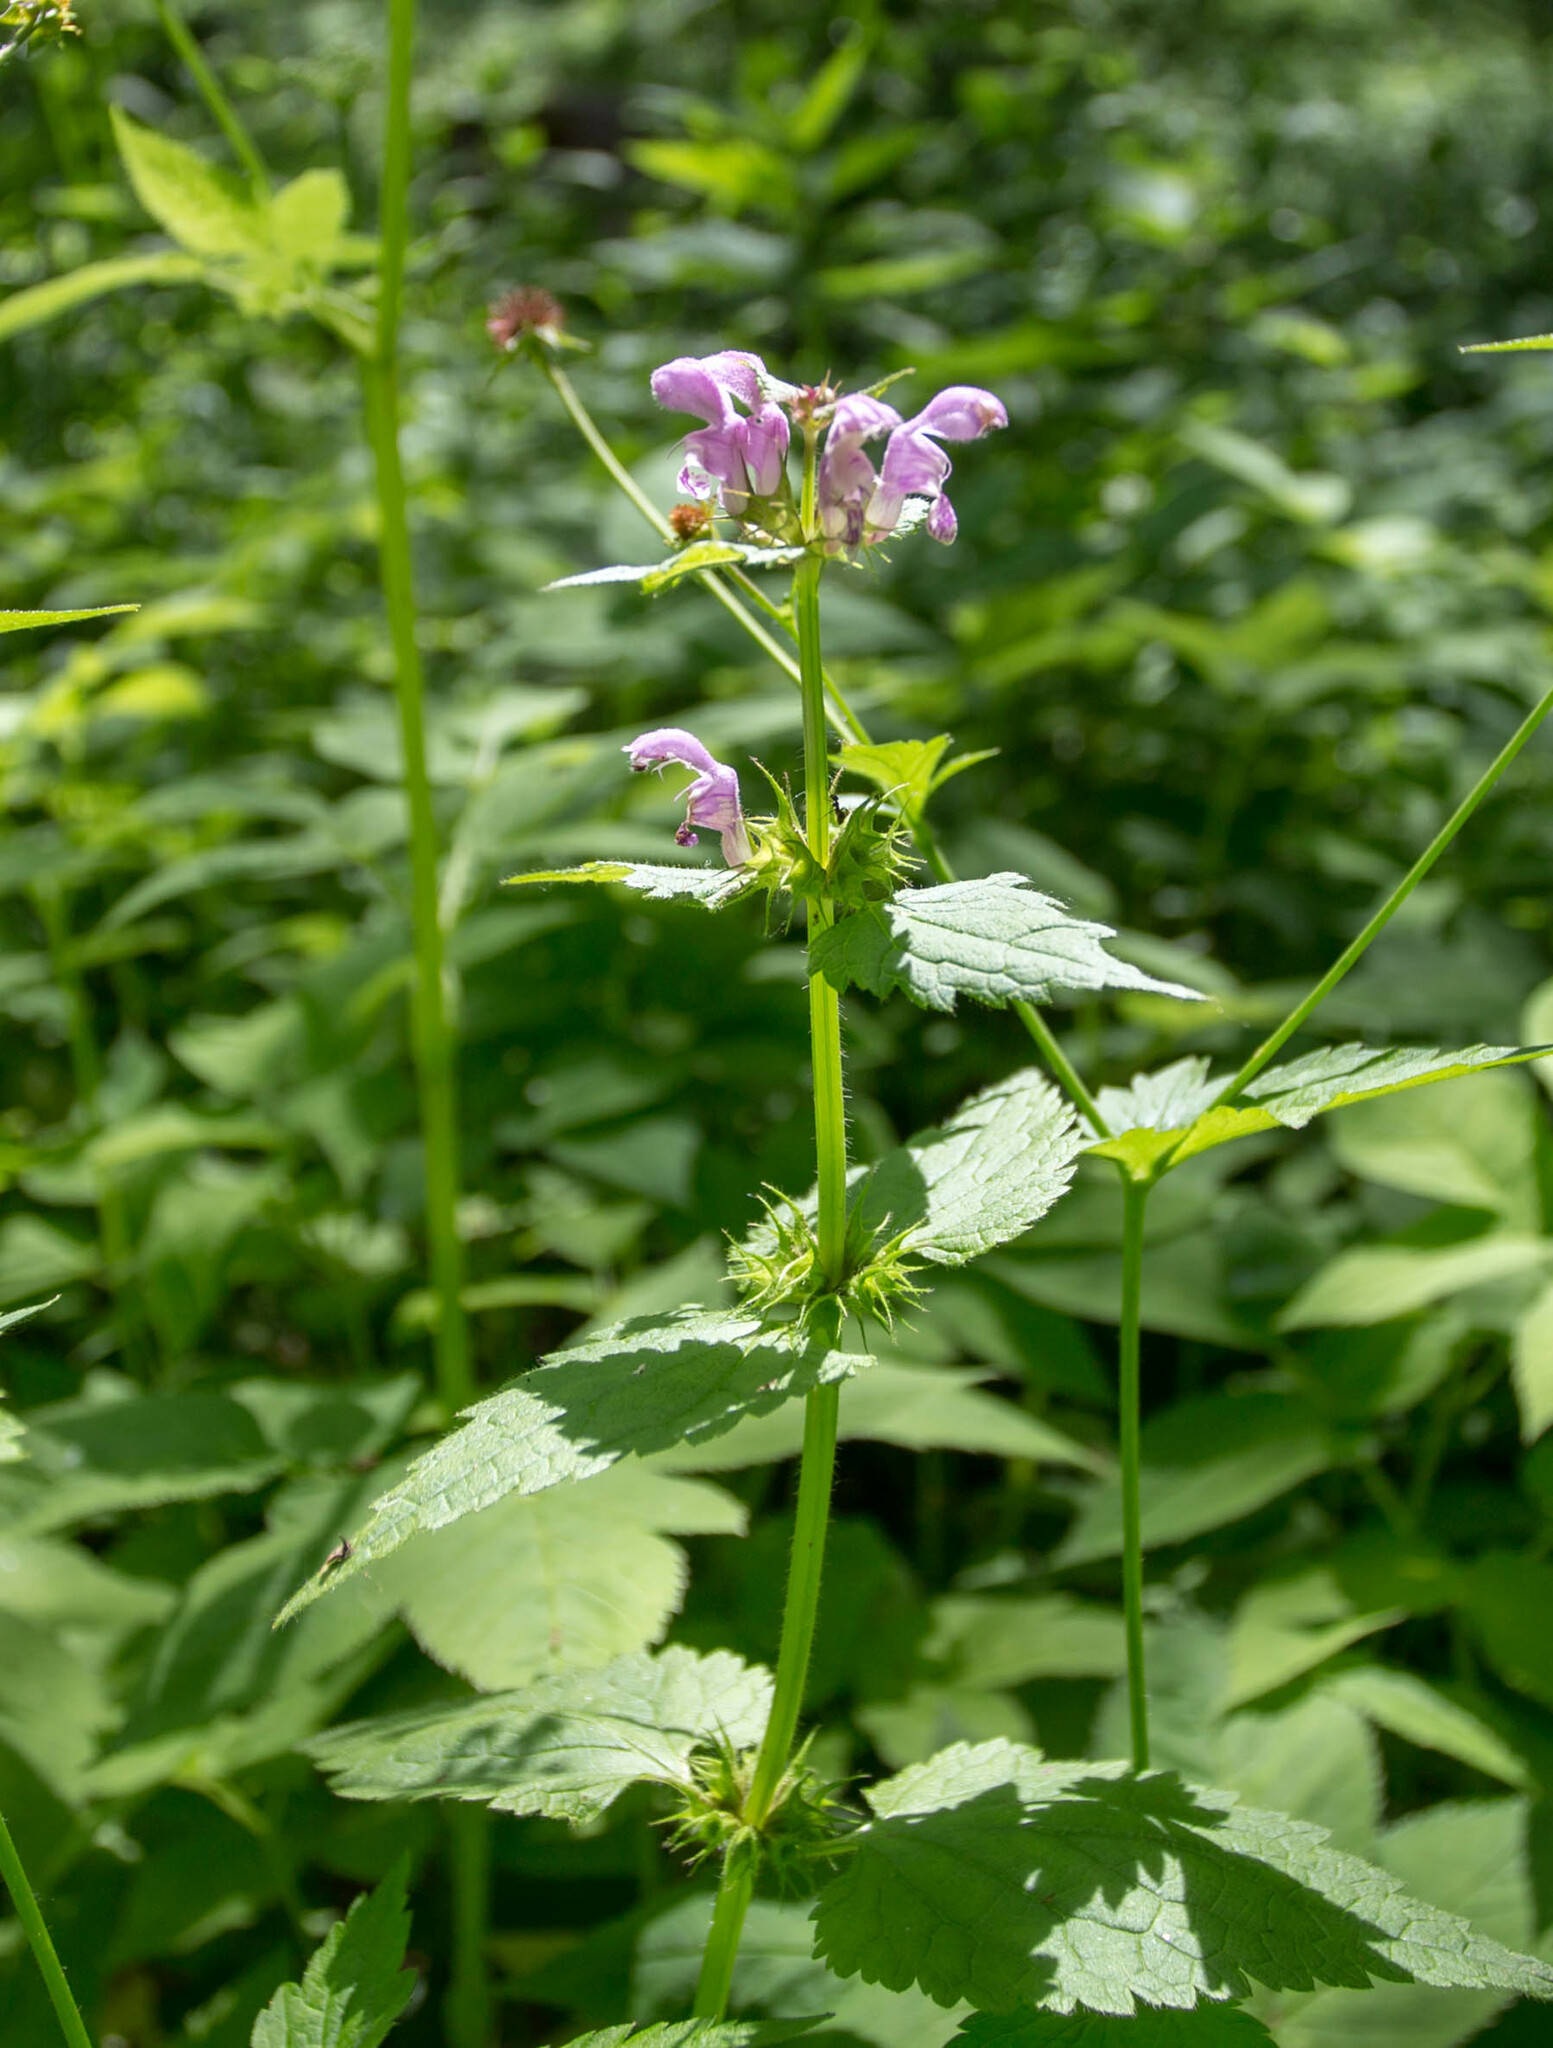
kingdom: Plantae
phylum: Tracheophyta
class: Magnoliopsida
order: Lamiales
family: Lamiaceae
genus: Lamium
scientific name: Lamium maculatum
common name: Spotted dead-nettle
